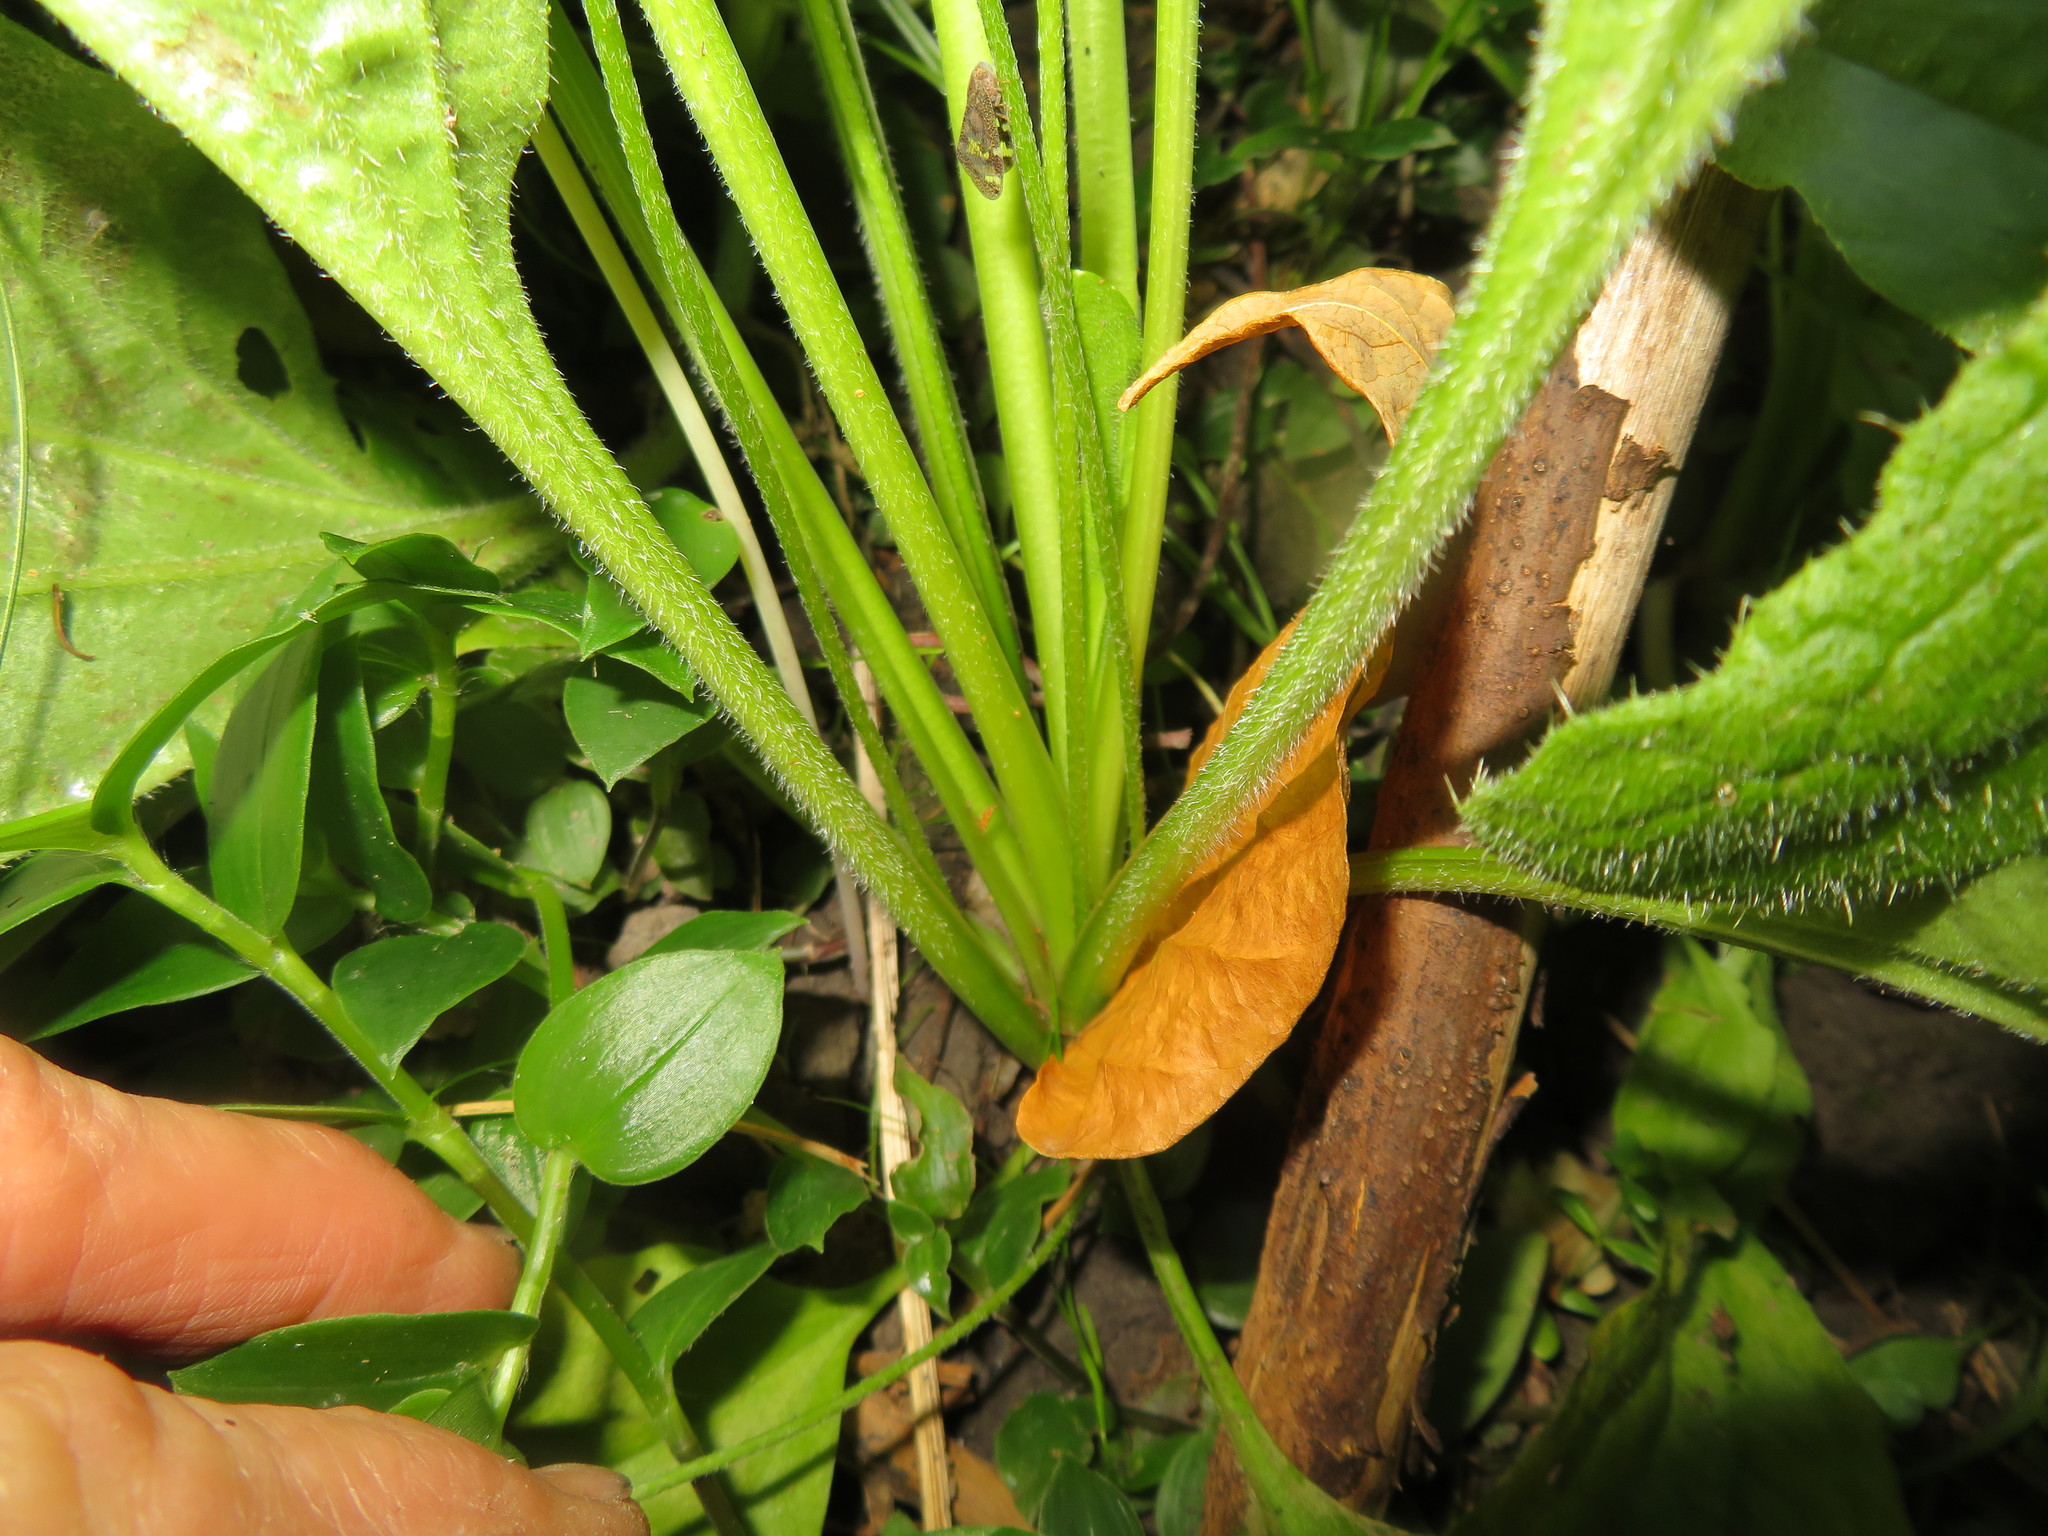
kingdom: Plantae
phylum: Tracheophyta
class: Magnoliopsida
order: Lamiales
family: Plantaginaceae
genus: Plantago
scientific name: Plantago major
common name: Common plantain
